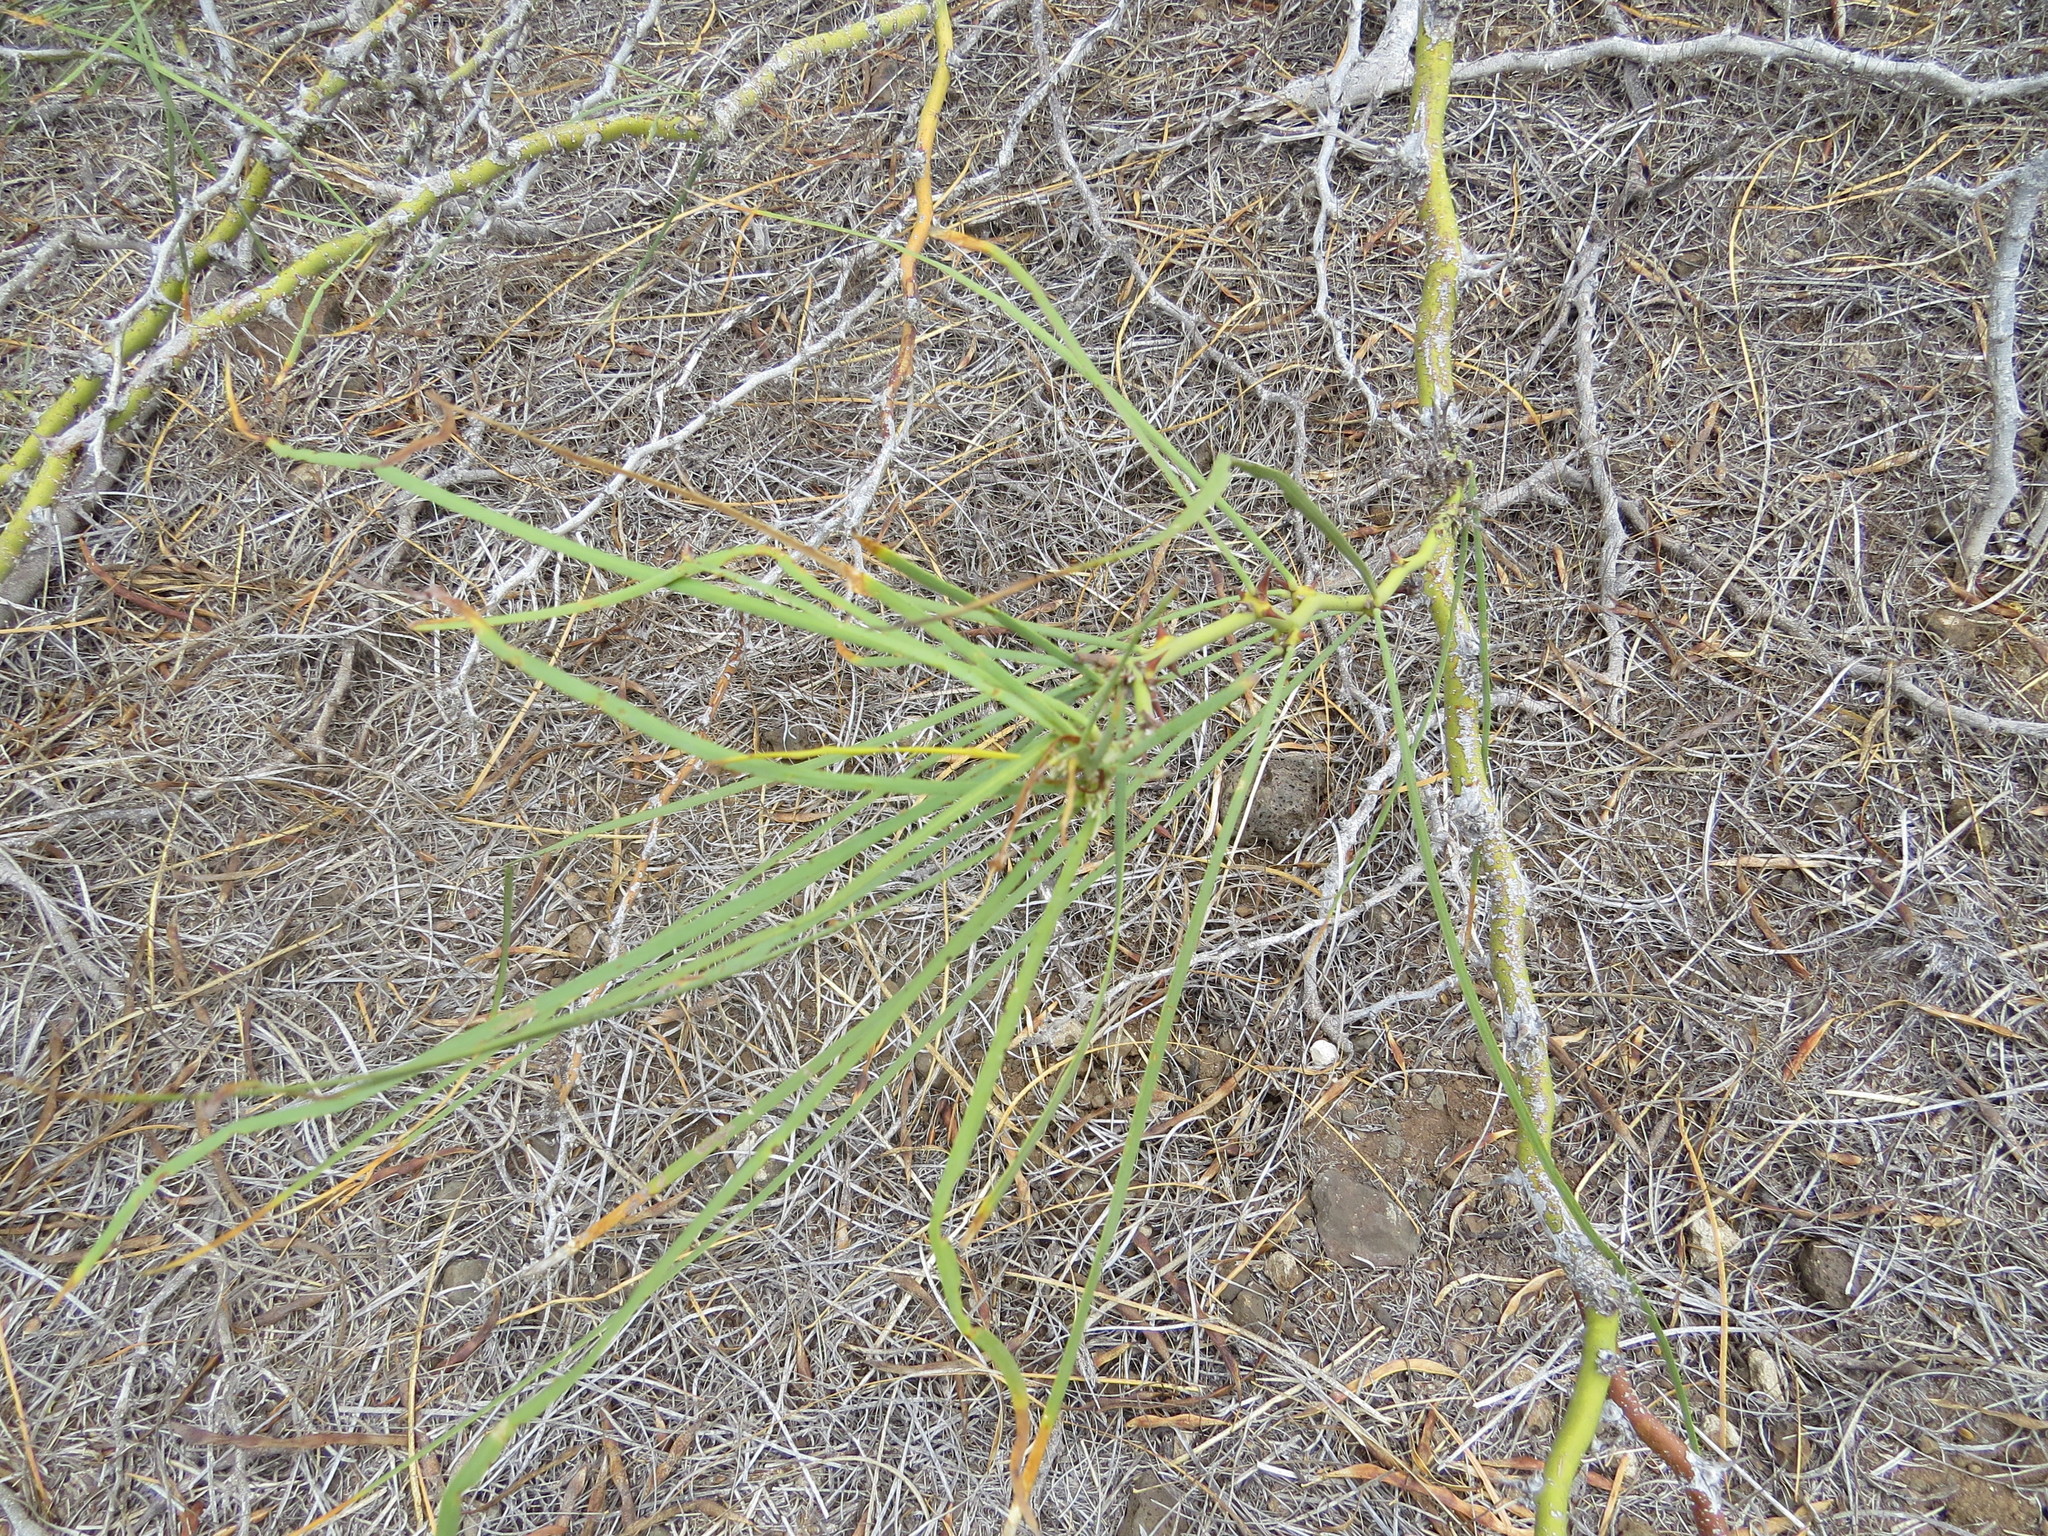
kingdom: Plantae
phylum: Tracheophyta
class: Magnoliopsida
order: Fabales
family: Fabaceae
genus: Parkinsonia
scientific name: Parkinsonia aculeata
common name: Jerusalem thorn
